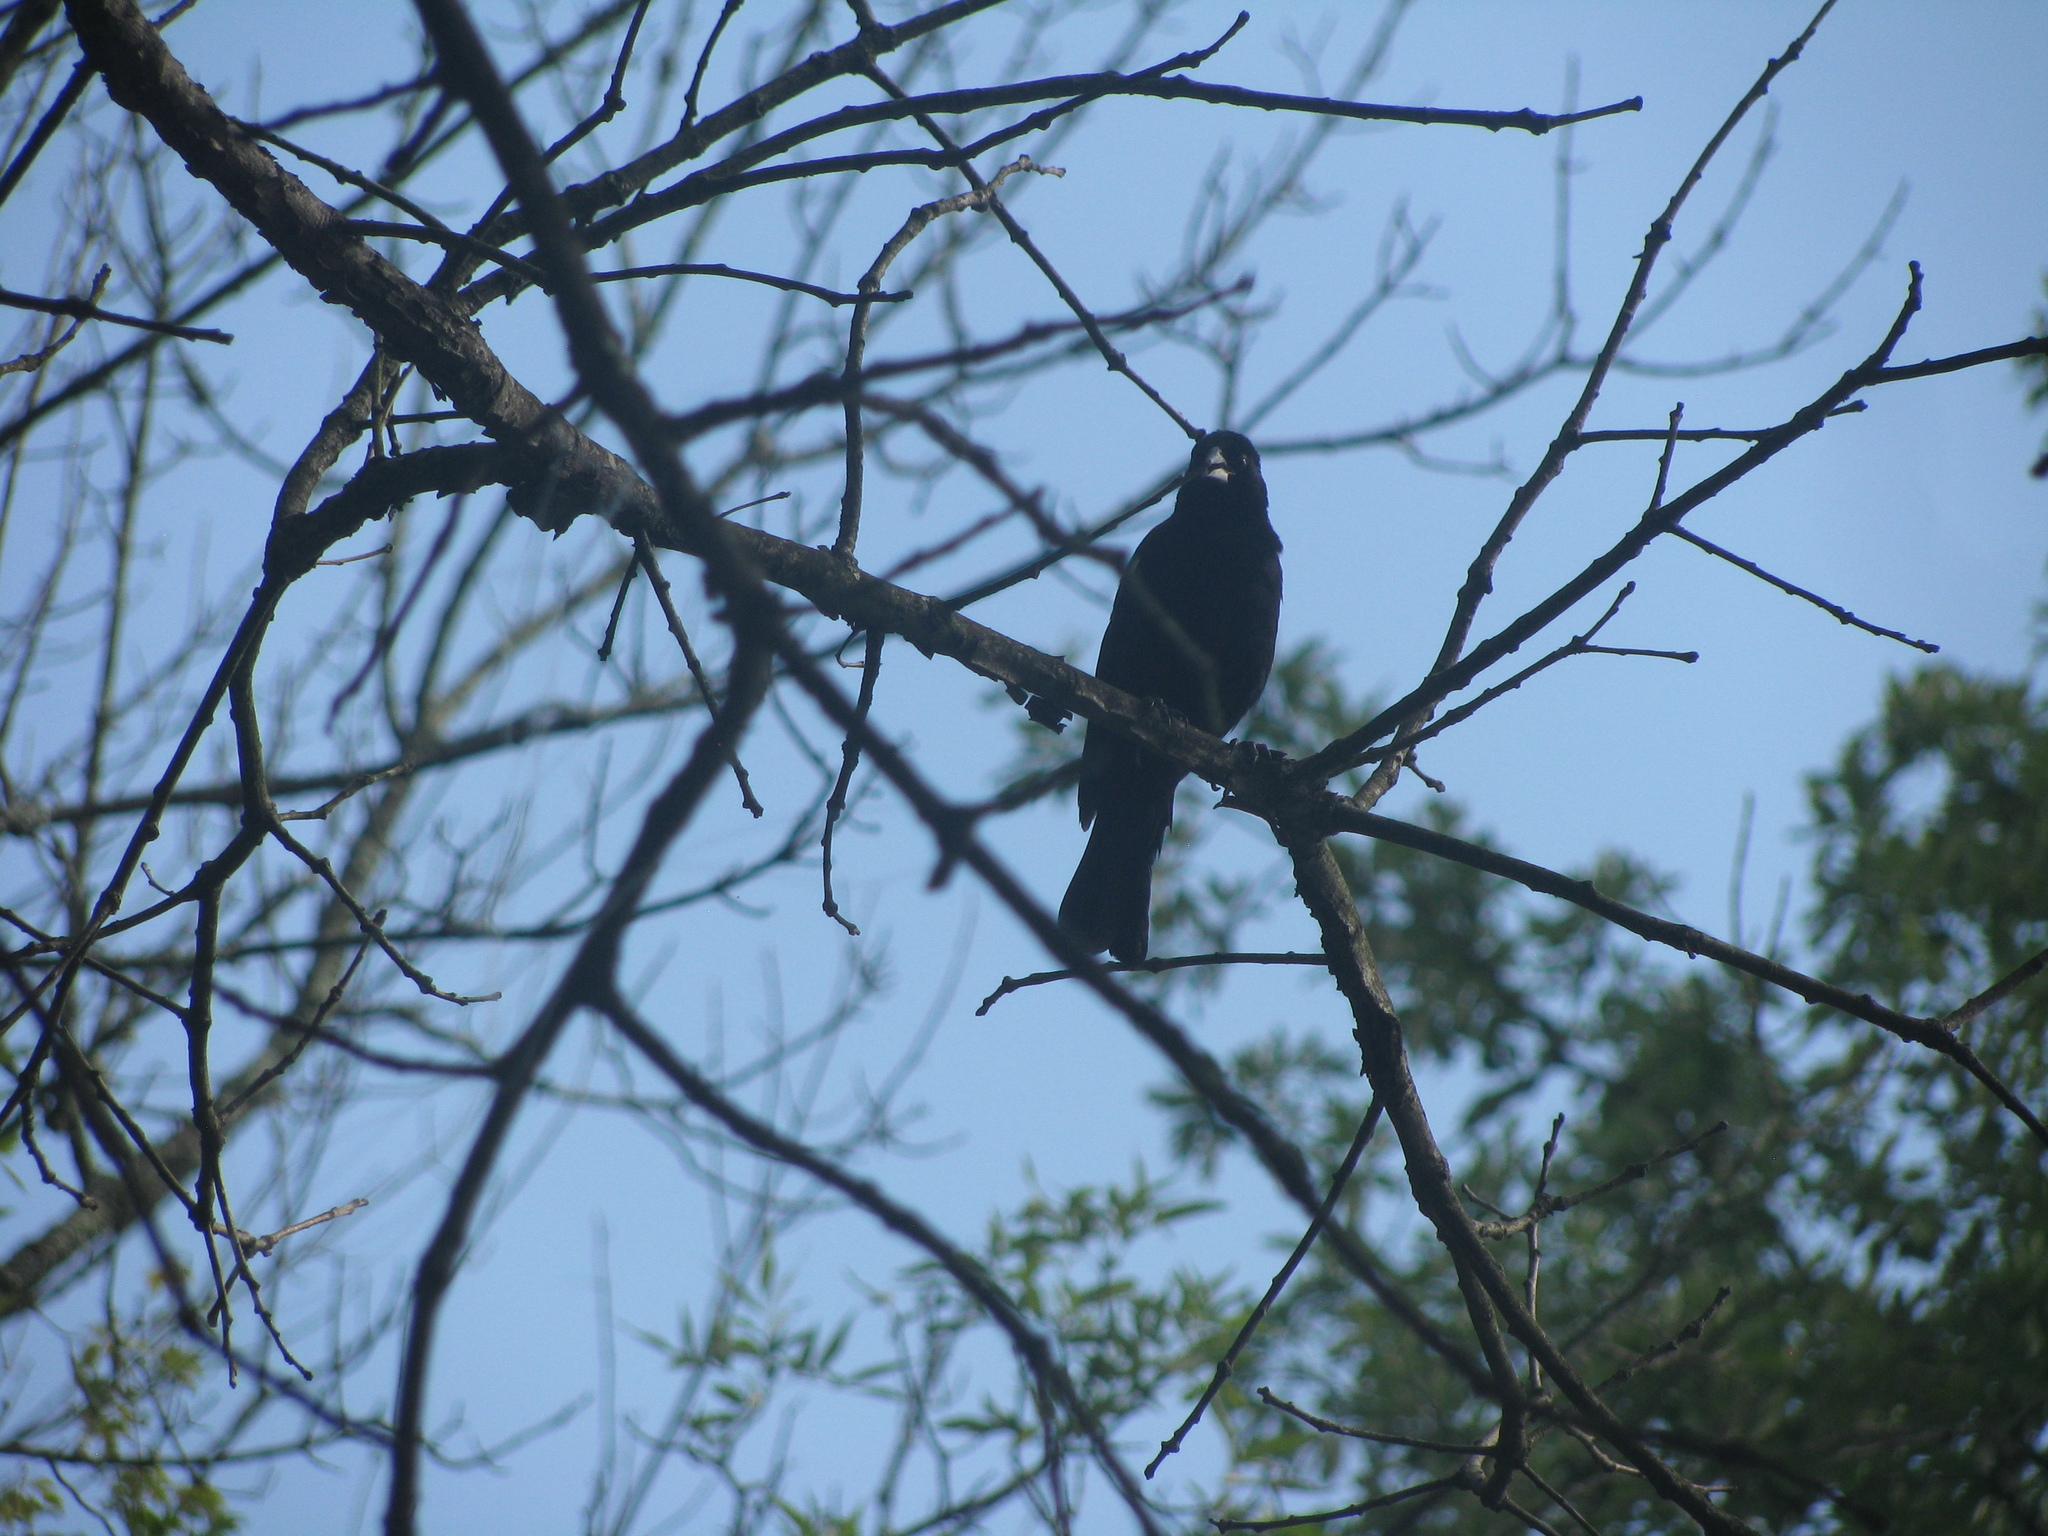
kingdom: Animalia
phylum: Chordata
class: Aves
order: Passeriformes
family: Icteridae
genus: Agelaius
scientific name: Agelaius phoeniceus
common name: Red-winged blackbird
